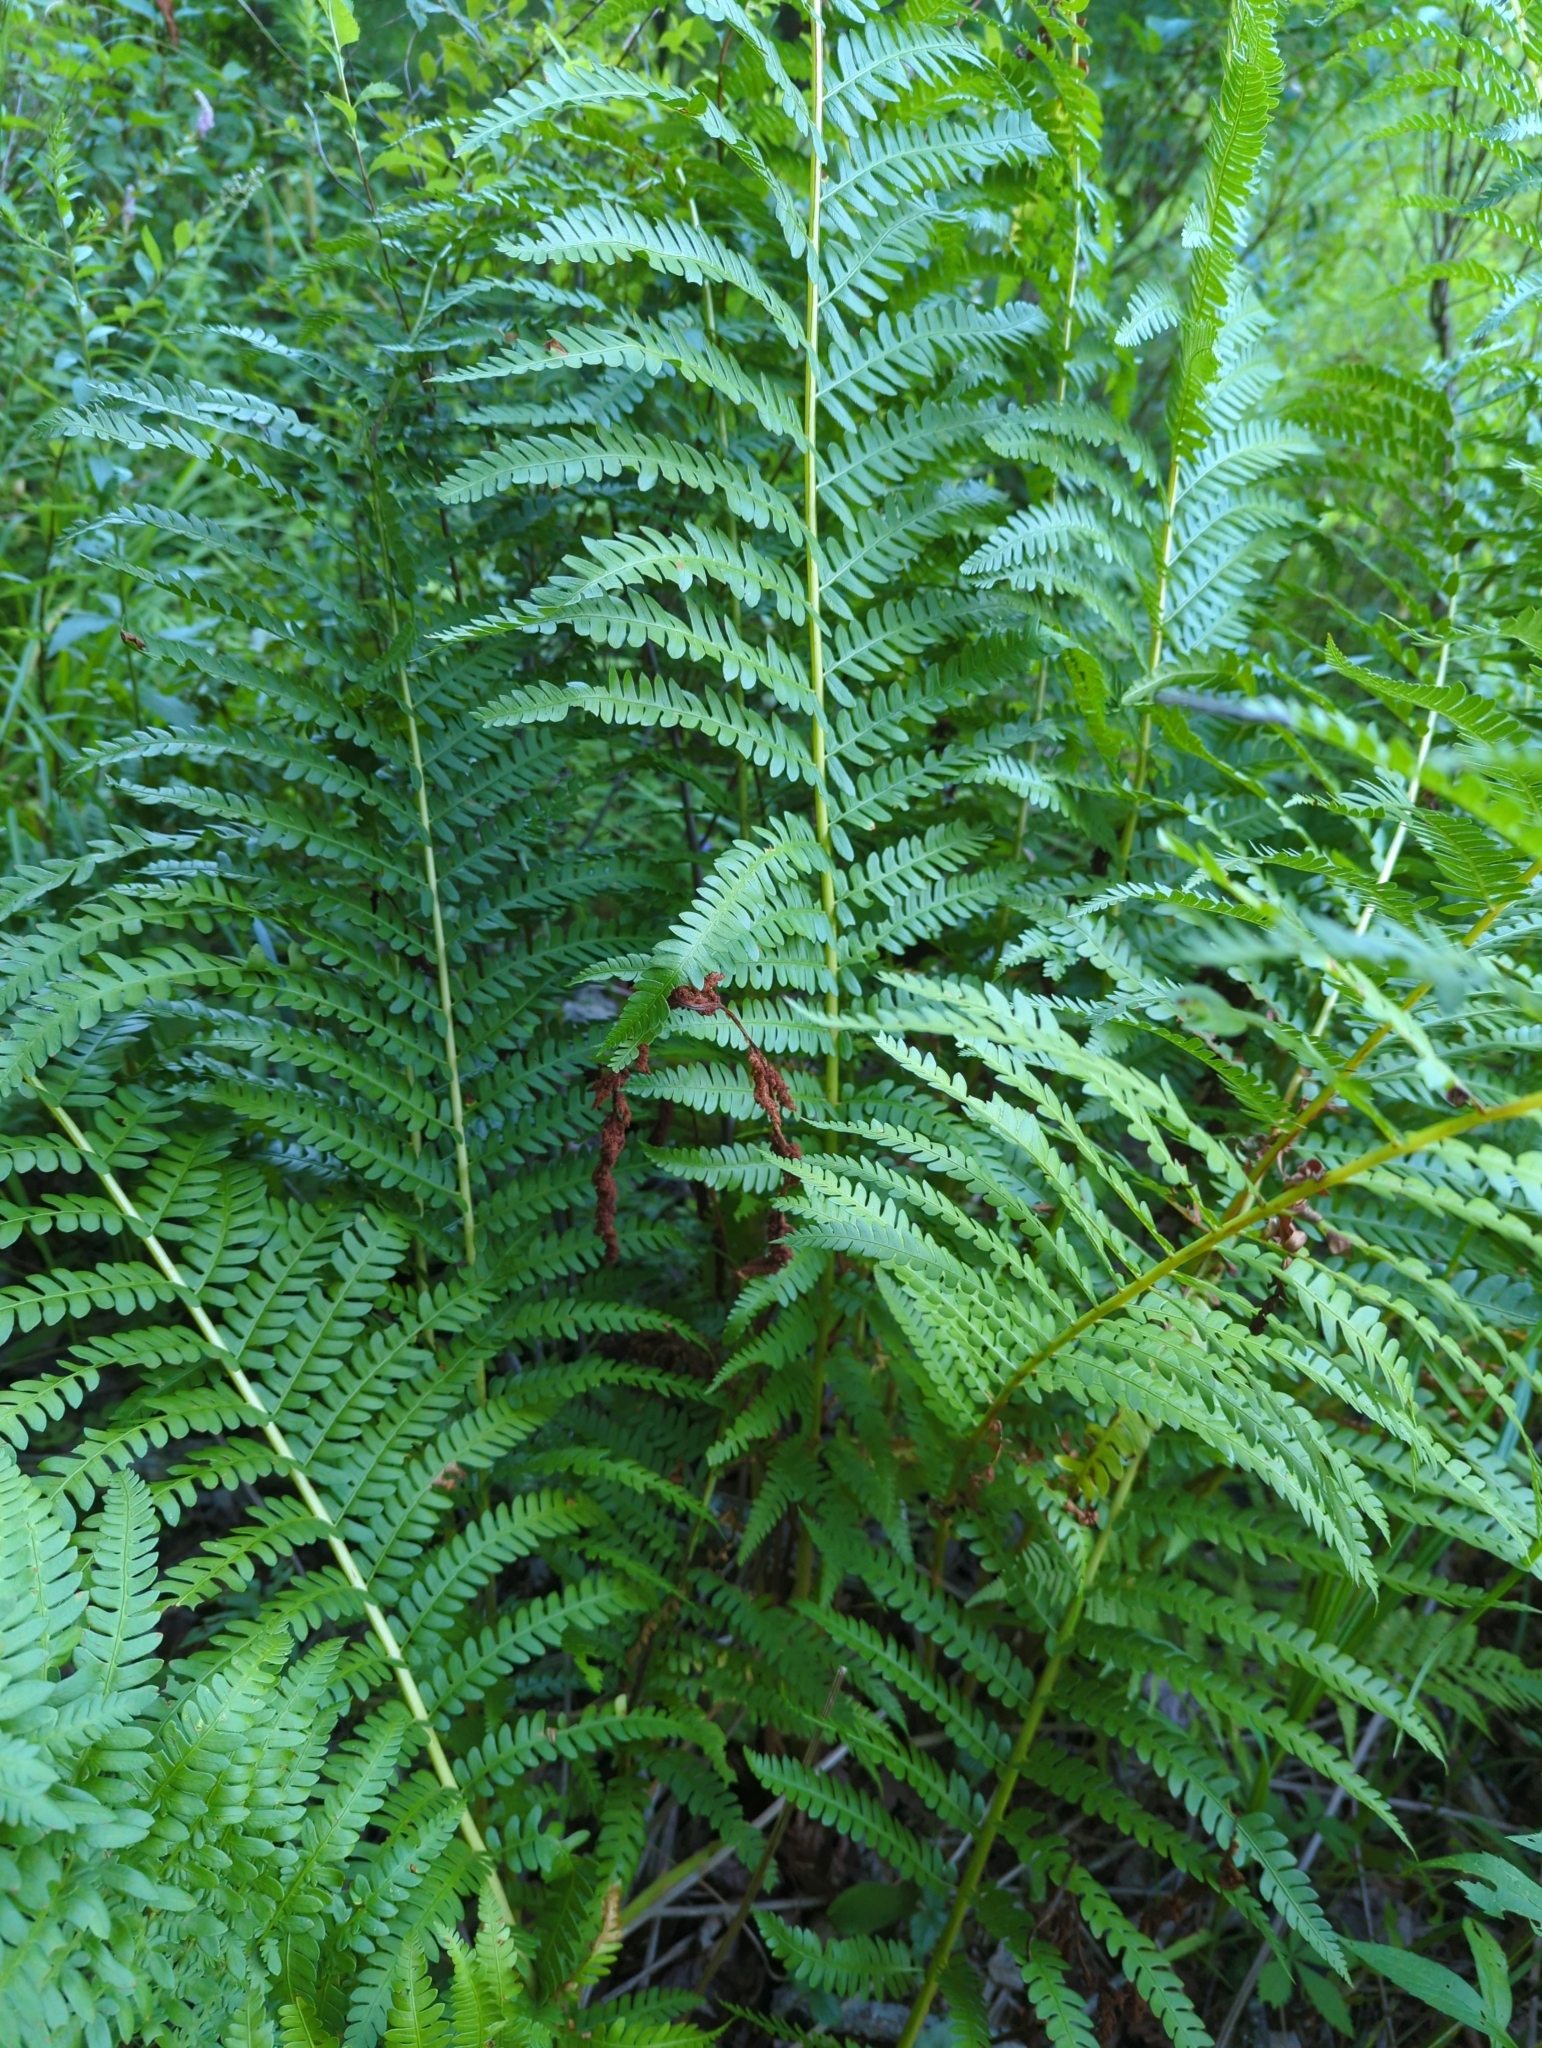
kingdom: Plantae
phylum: Tracheophyta
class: Polypodiopsida
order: Osmundales
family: Osmundaceae
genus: Osmundastrum
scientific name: Osmundastrum cinnamomeum
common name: Cinnamon fern
